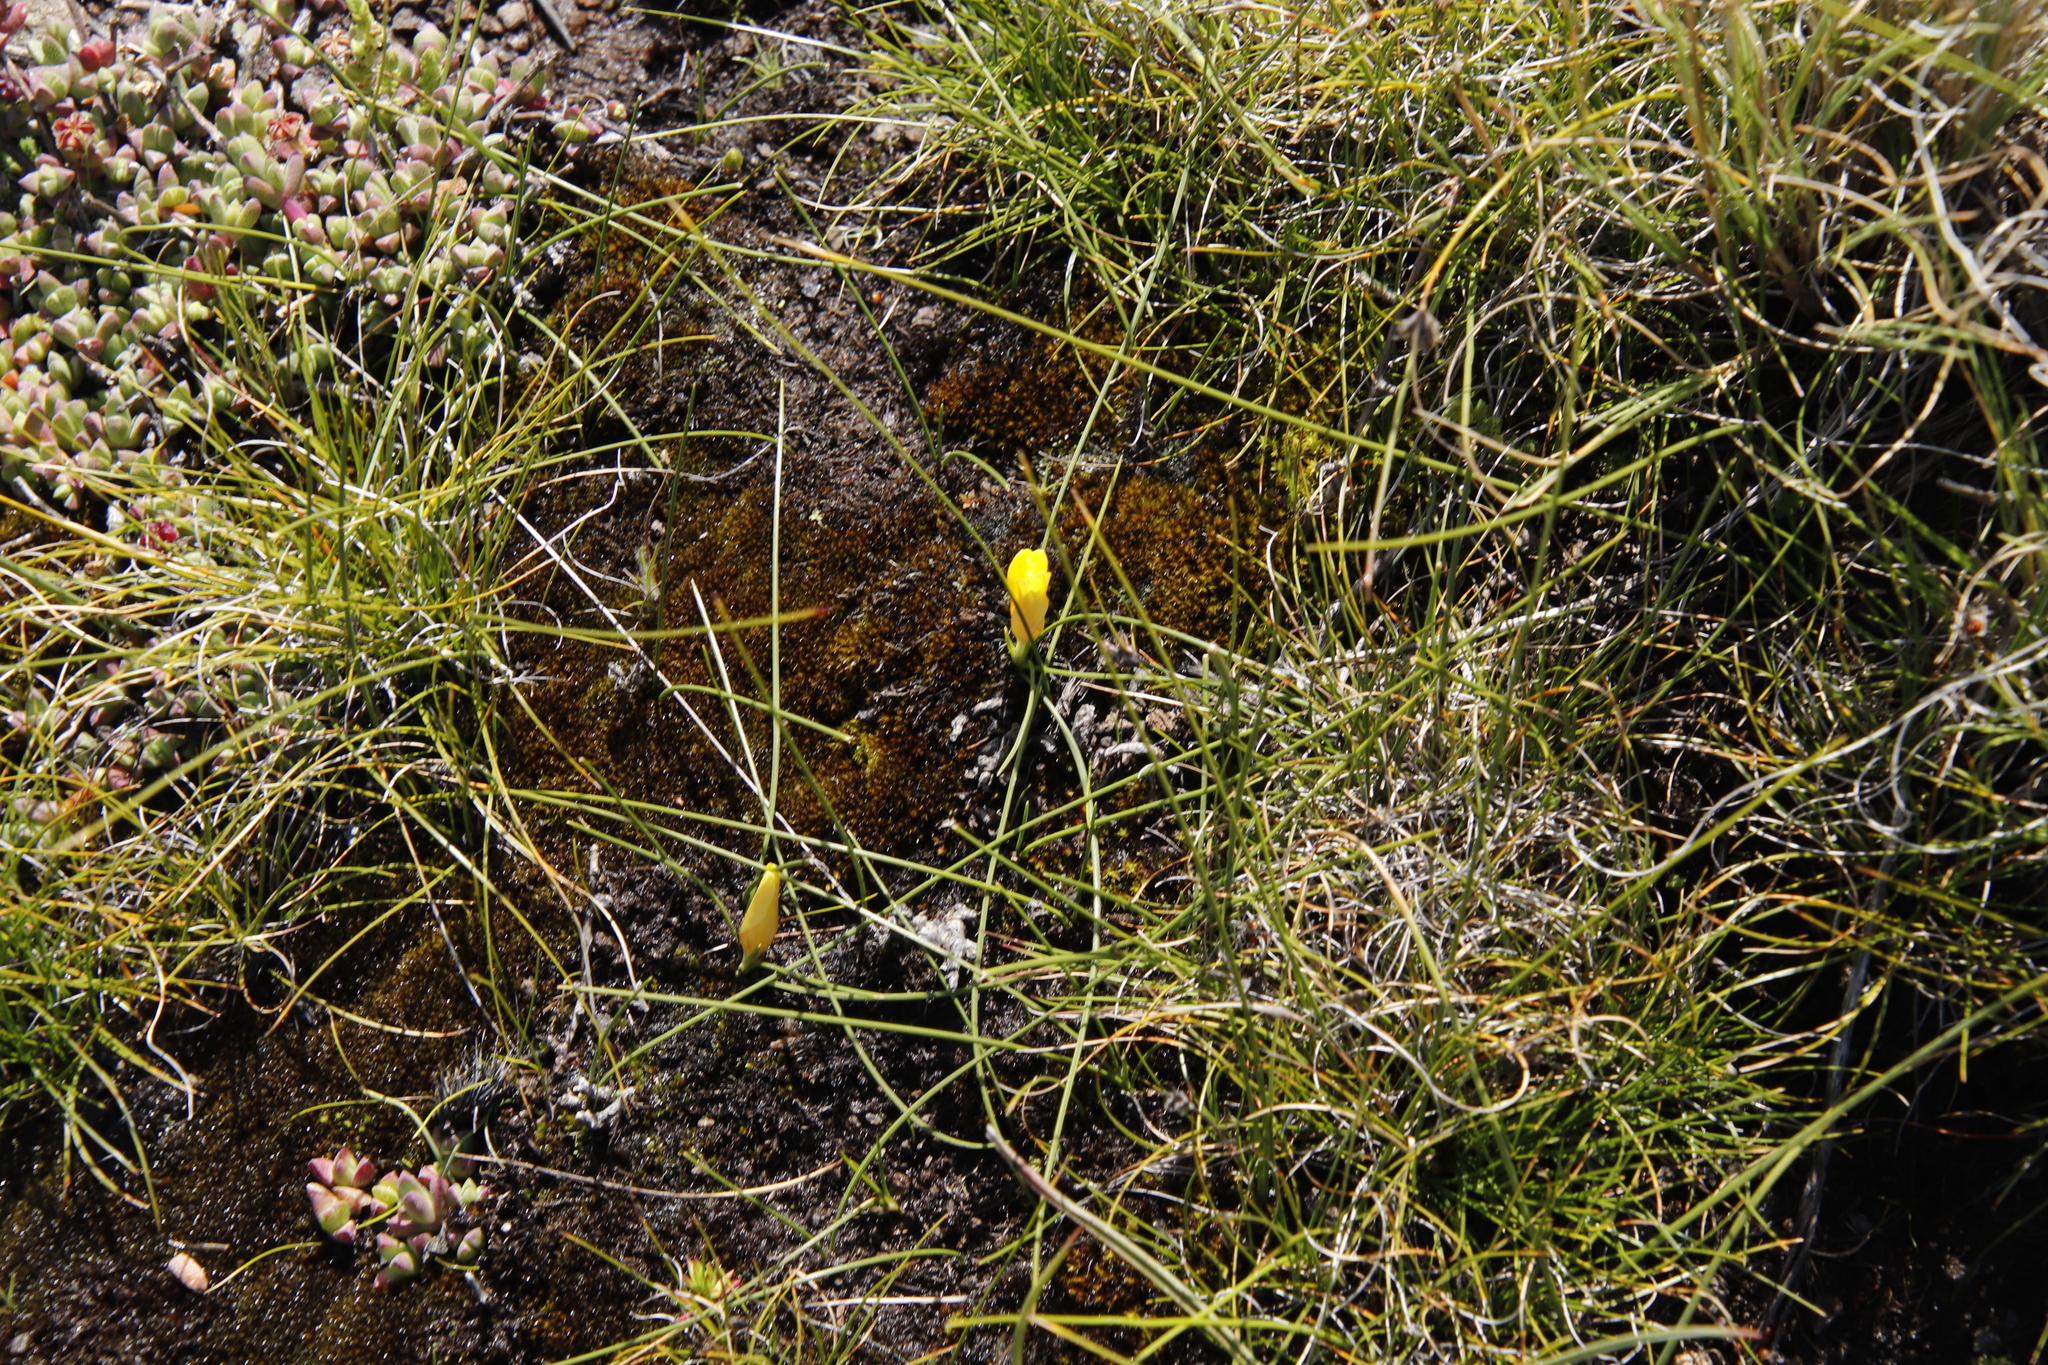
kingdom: Plantae
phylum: Tracheophyta
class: Liliopsida
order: Asparagales
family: Iridaceae
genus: Romulea
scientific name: Romulea macowanii
